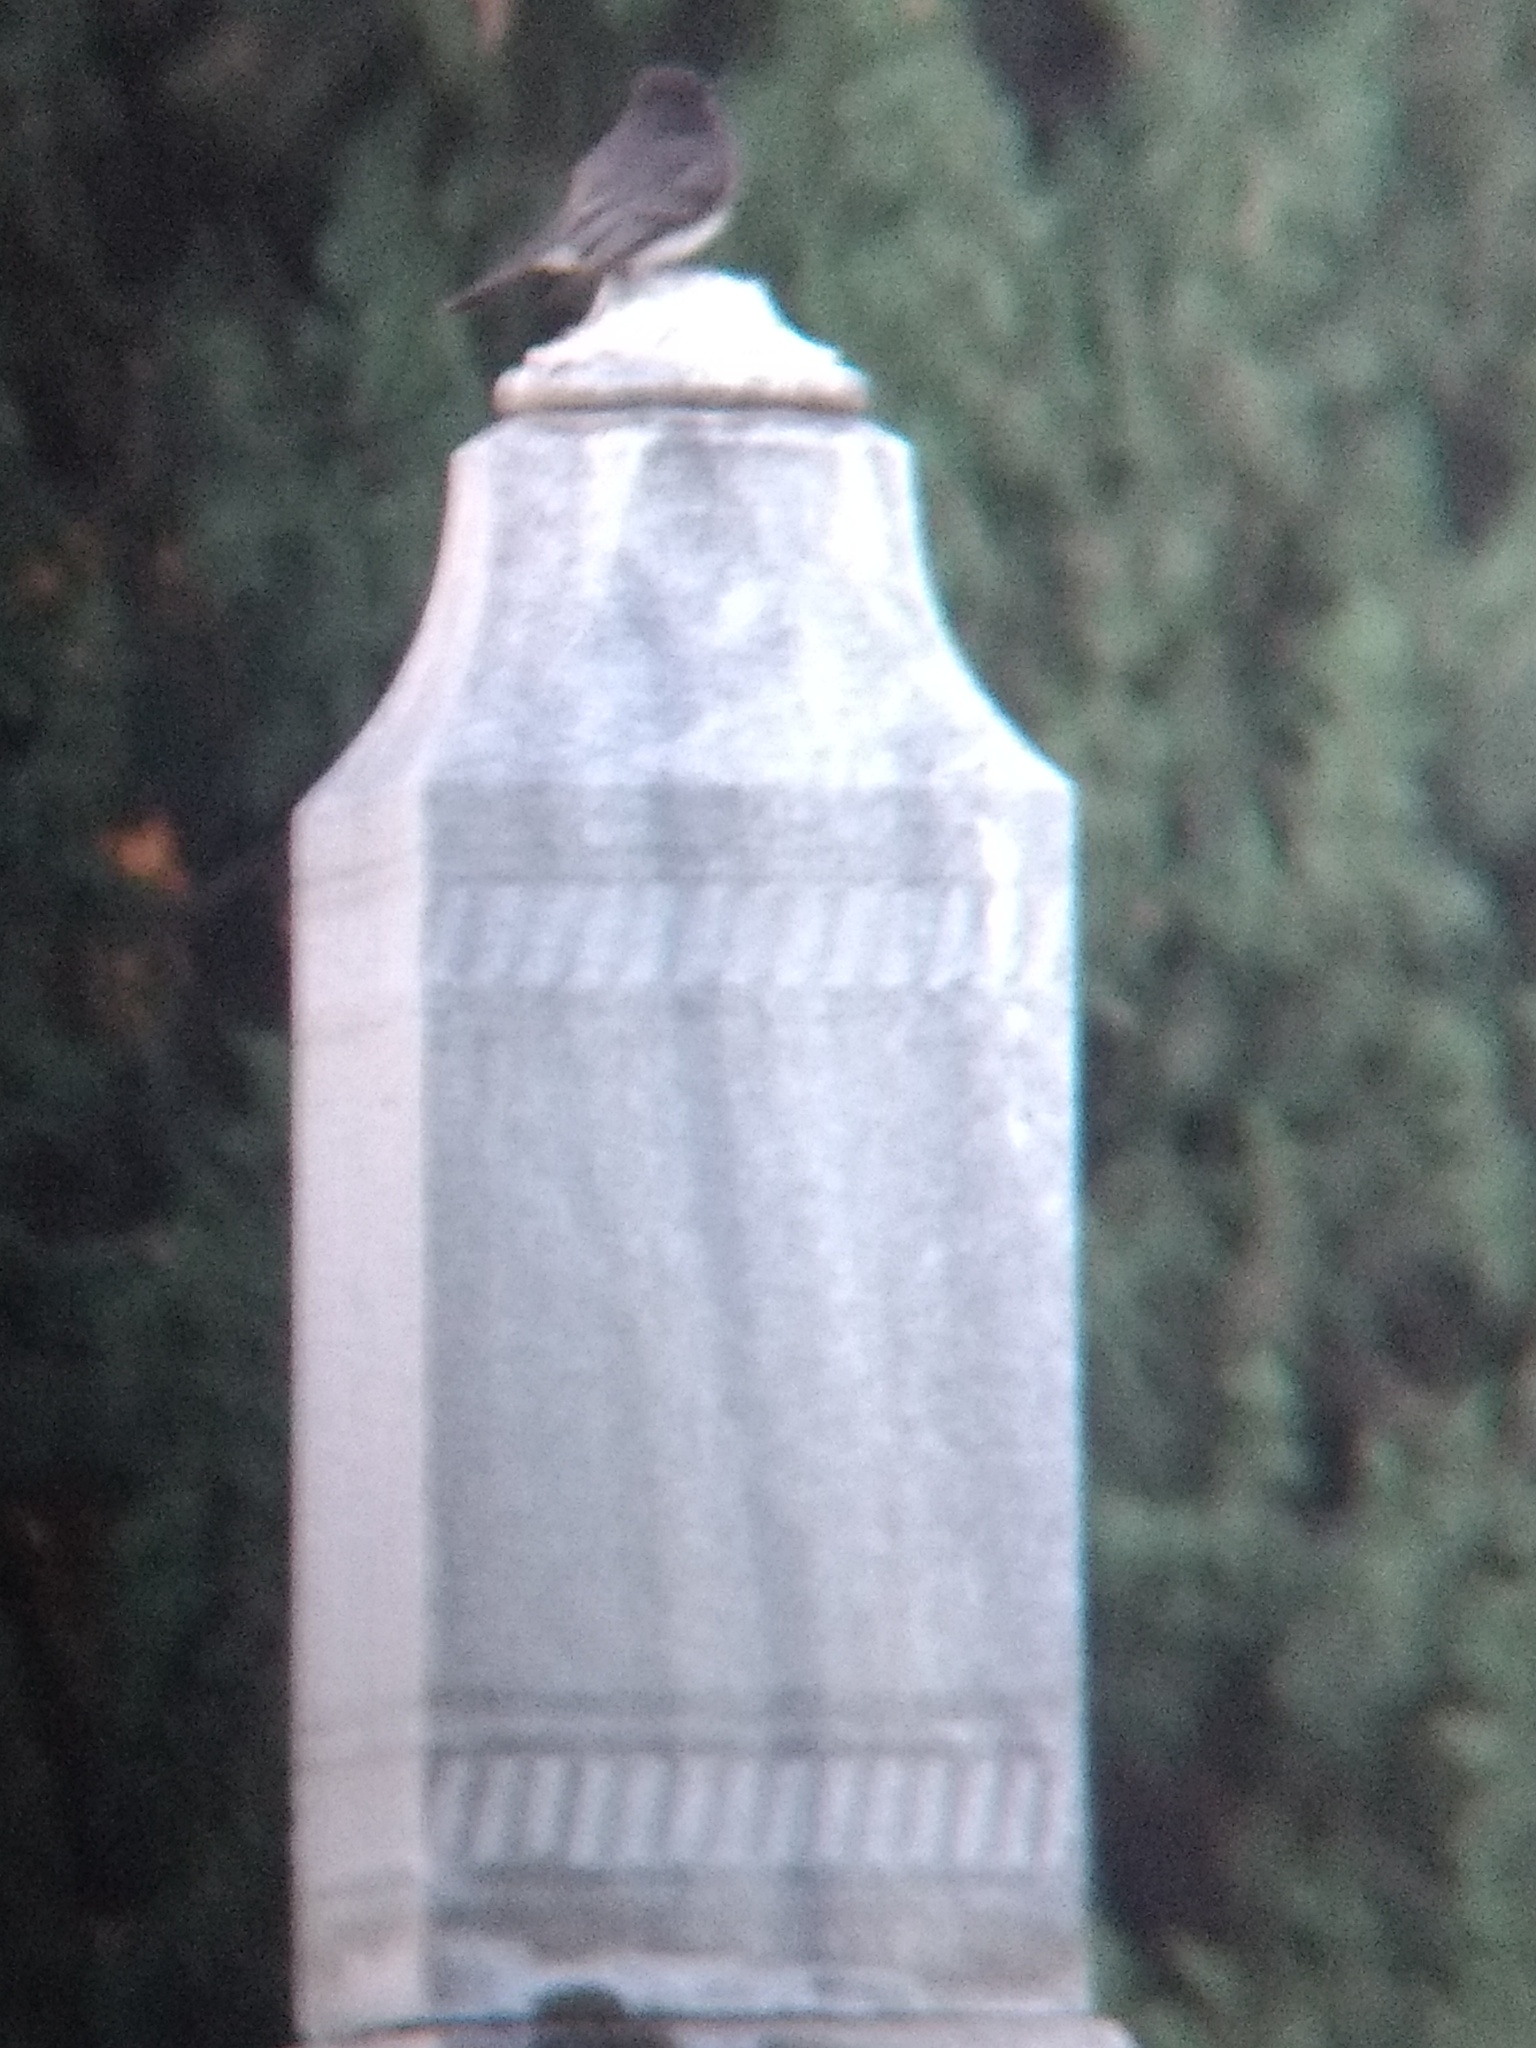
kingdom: Animalia
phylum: Chordata
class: Aves
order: Passeriformes
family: Tyrannidae
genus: Sayornis
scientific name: Sayornis nigricans
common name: Black phoebe
